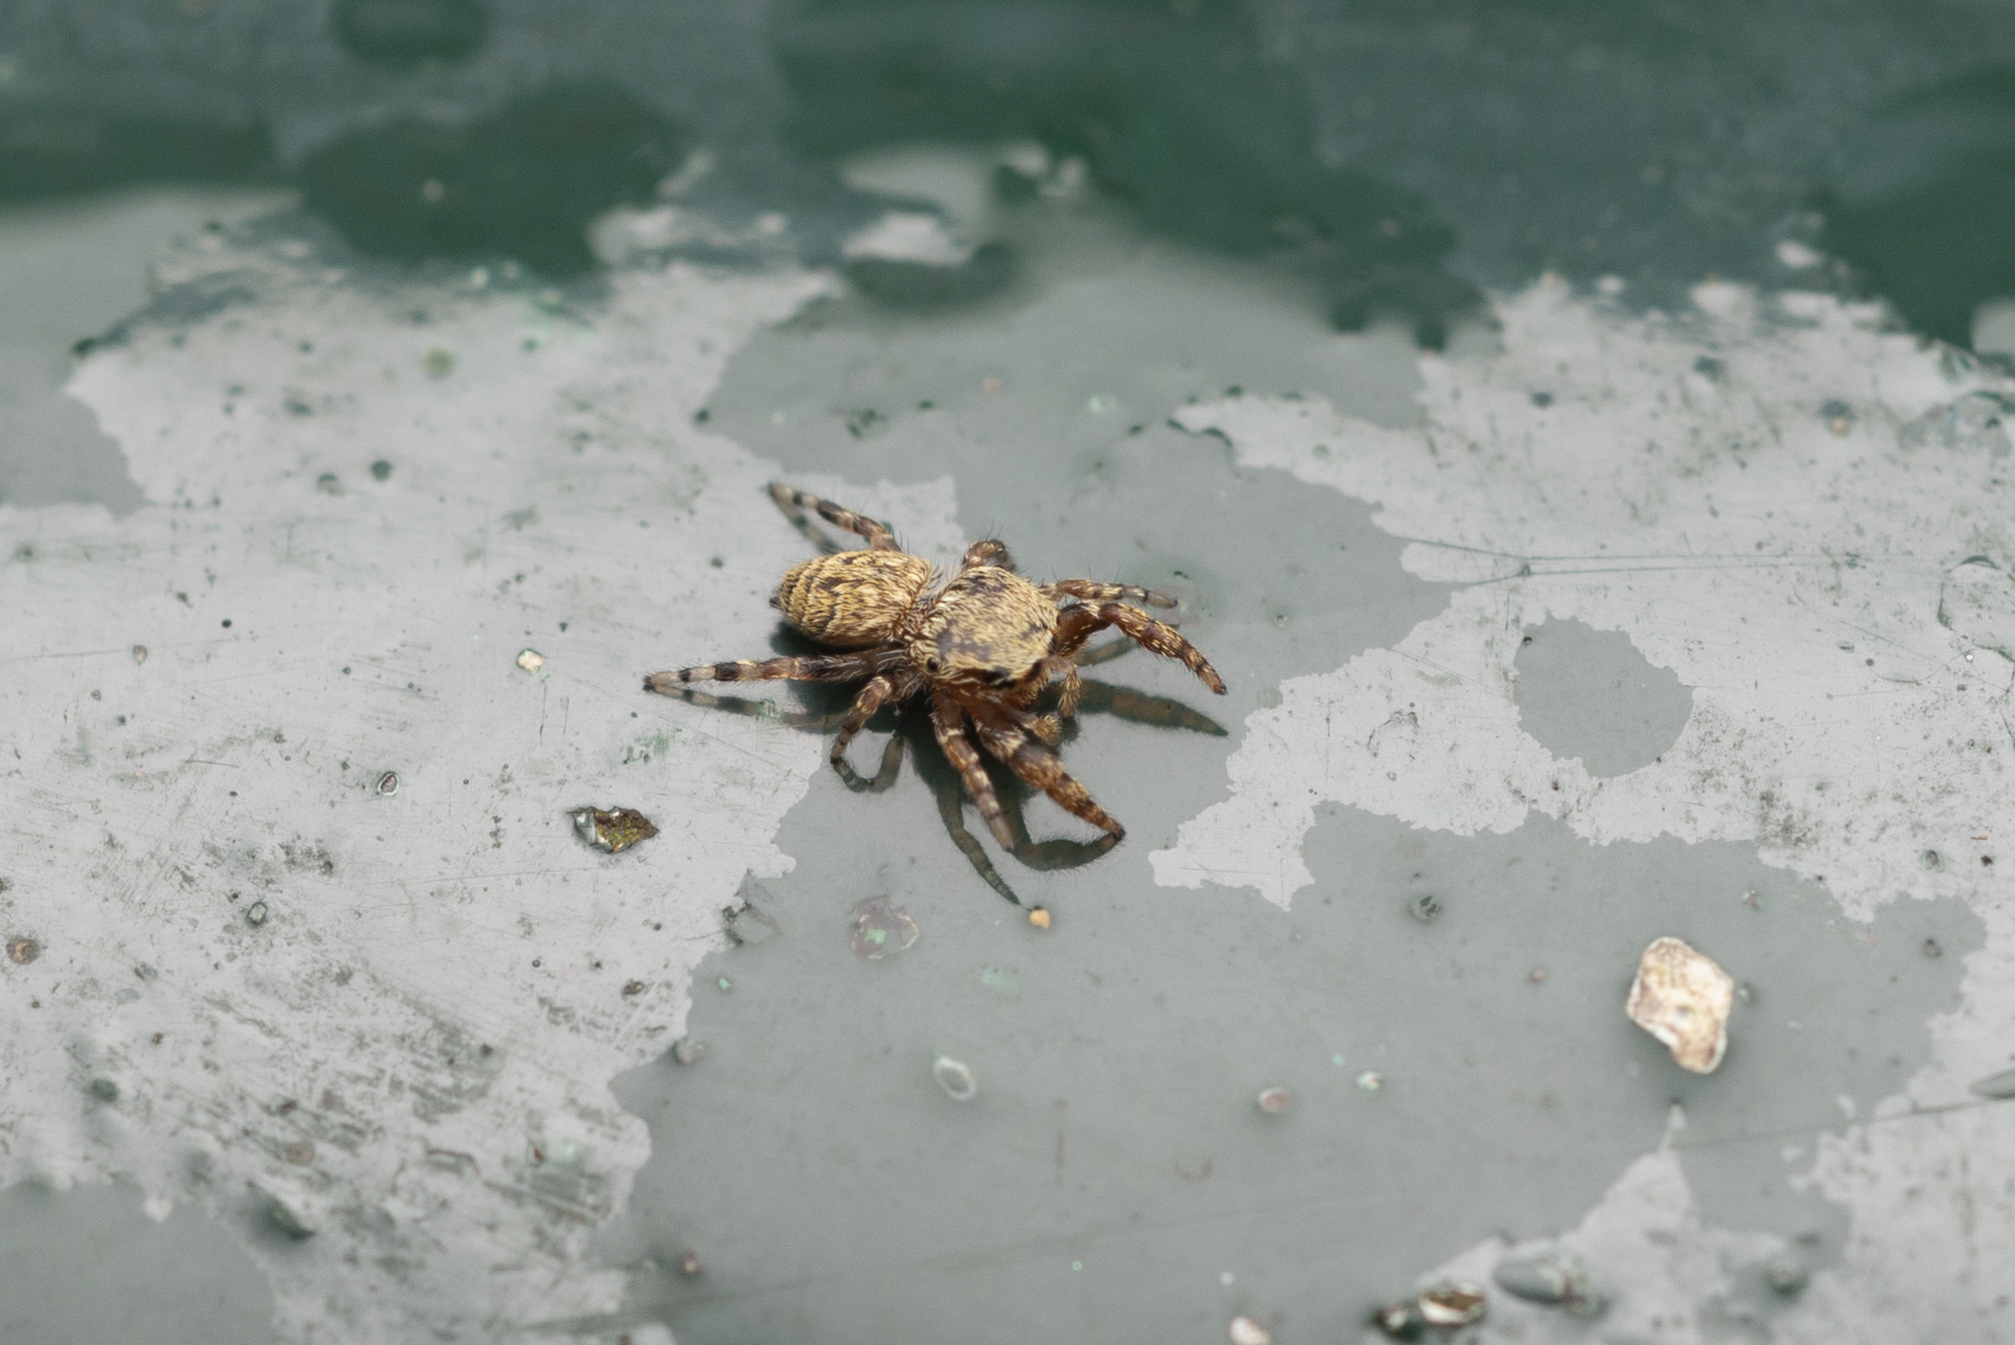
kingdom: Animalia
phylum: Arthropoda
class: Arachnida
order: Araneae
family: Salticidae
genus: Rhene
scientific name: Rhene flavicomans
